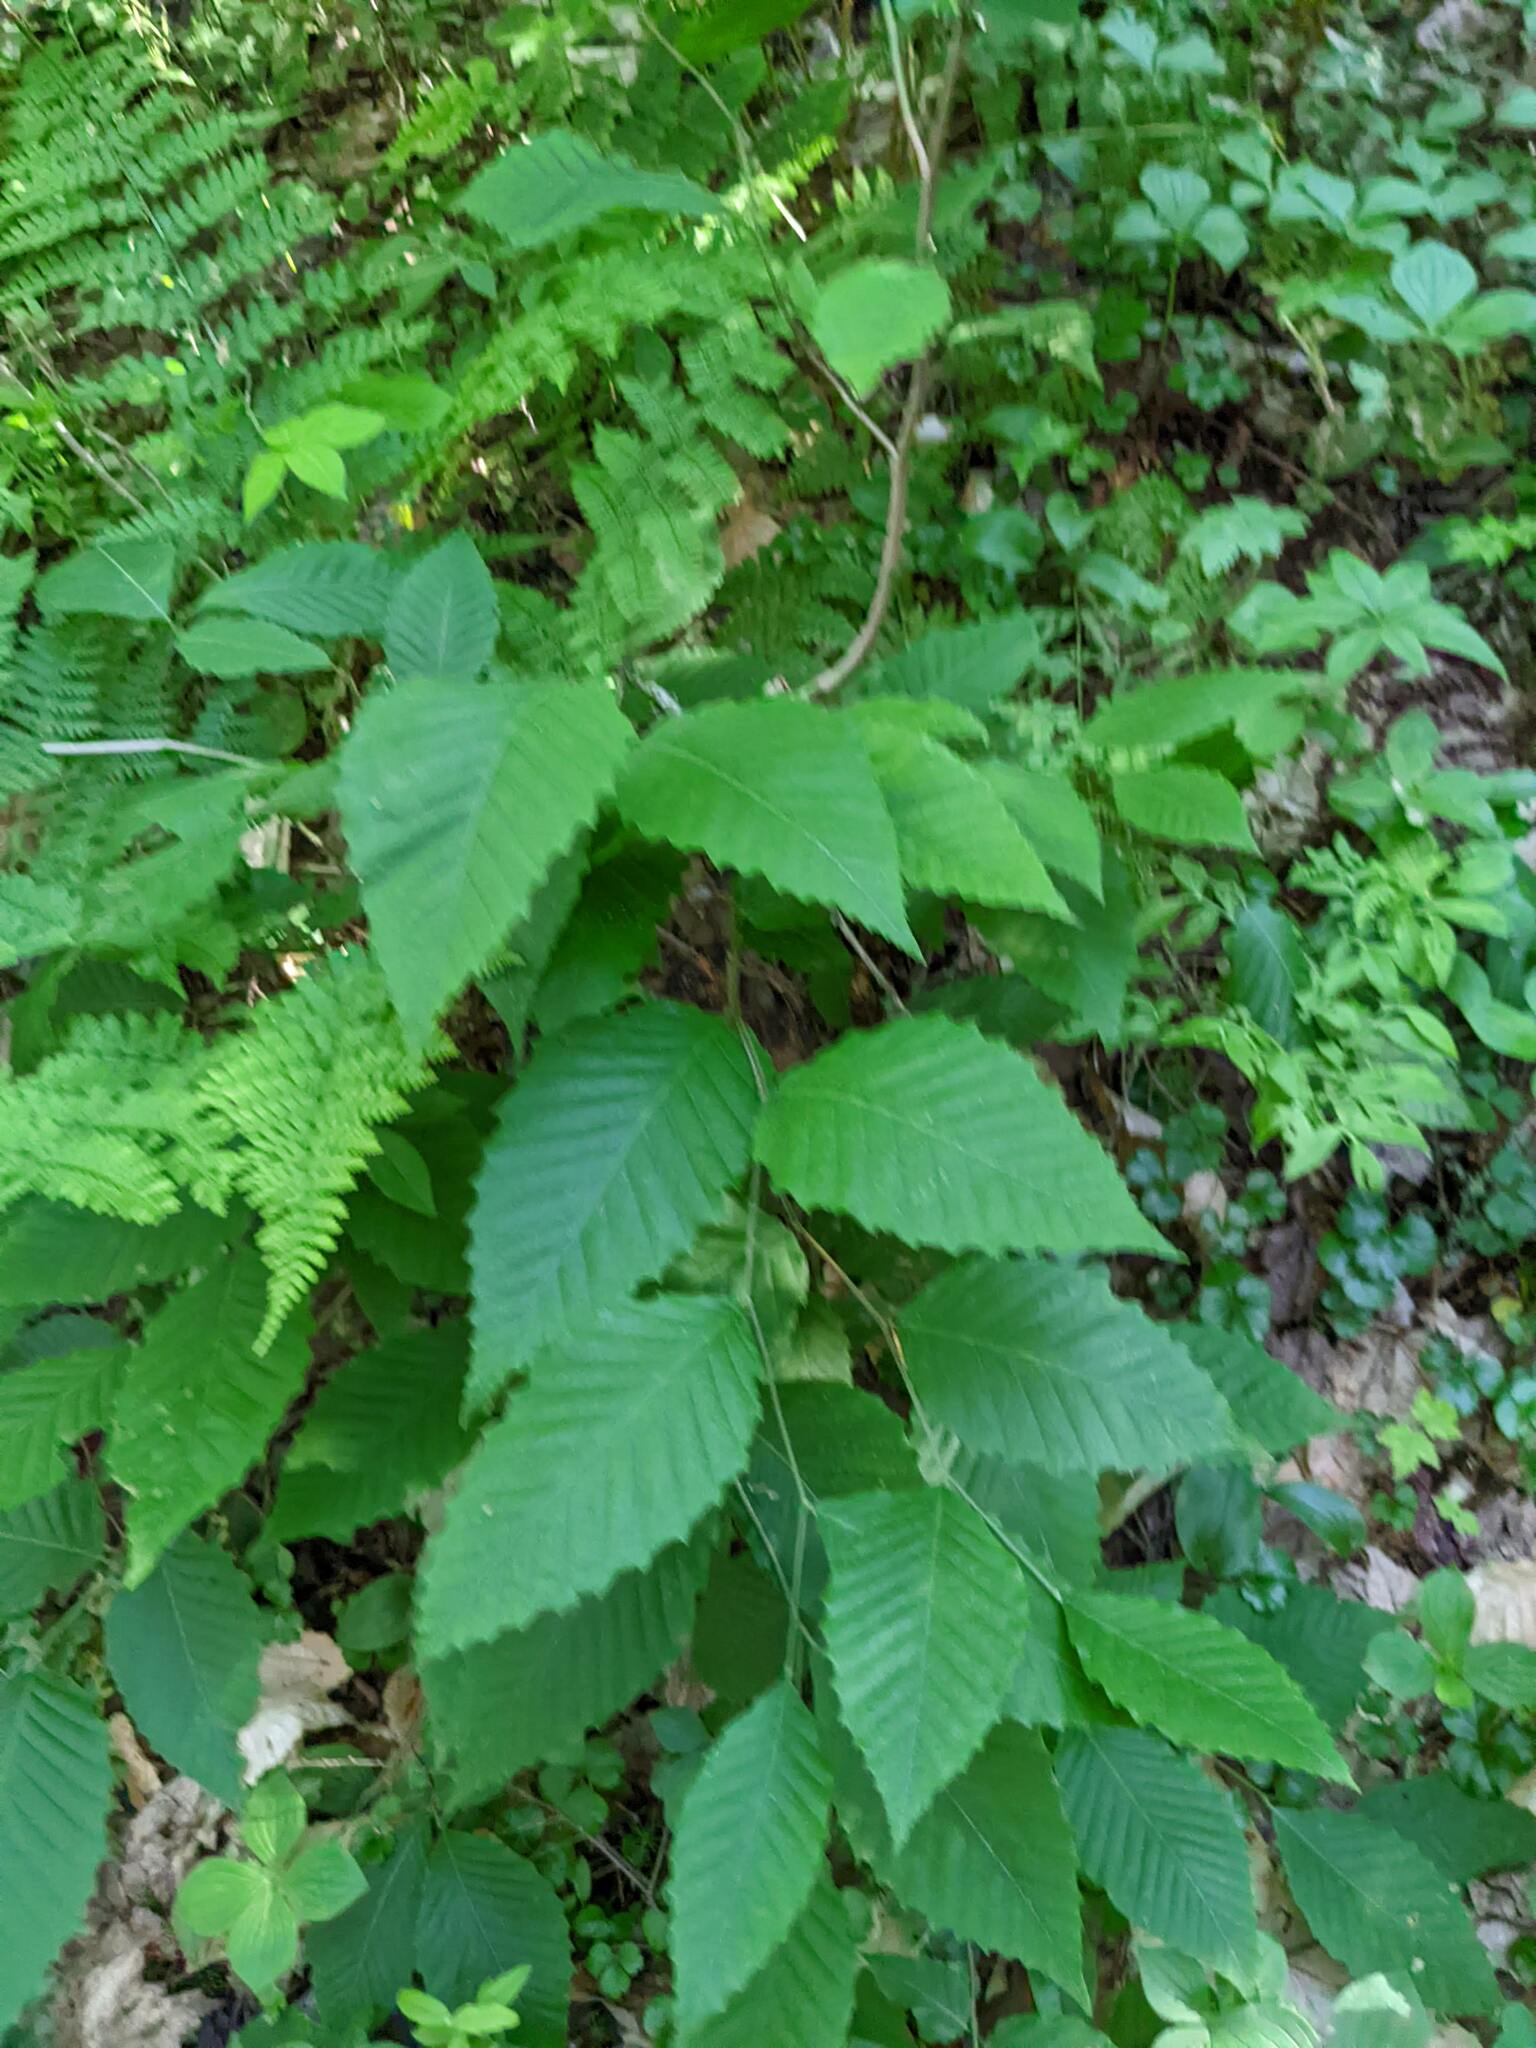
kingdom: Plantae
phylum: Tracheophyta
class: Magnoliopsida
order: Fagales
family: Fagaceae
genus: Fagus
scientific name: Fagus grandifolia
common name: American beech
